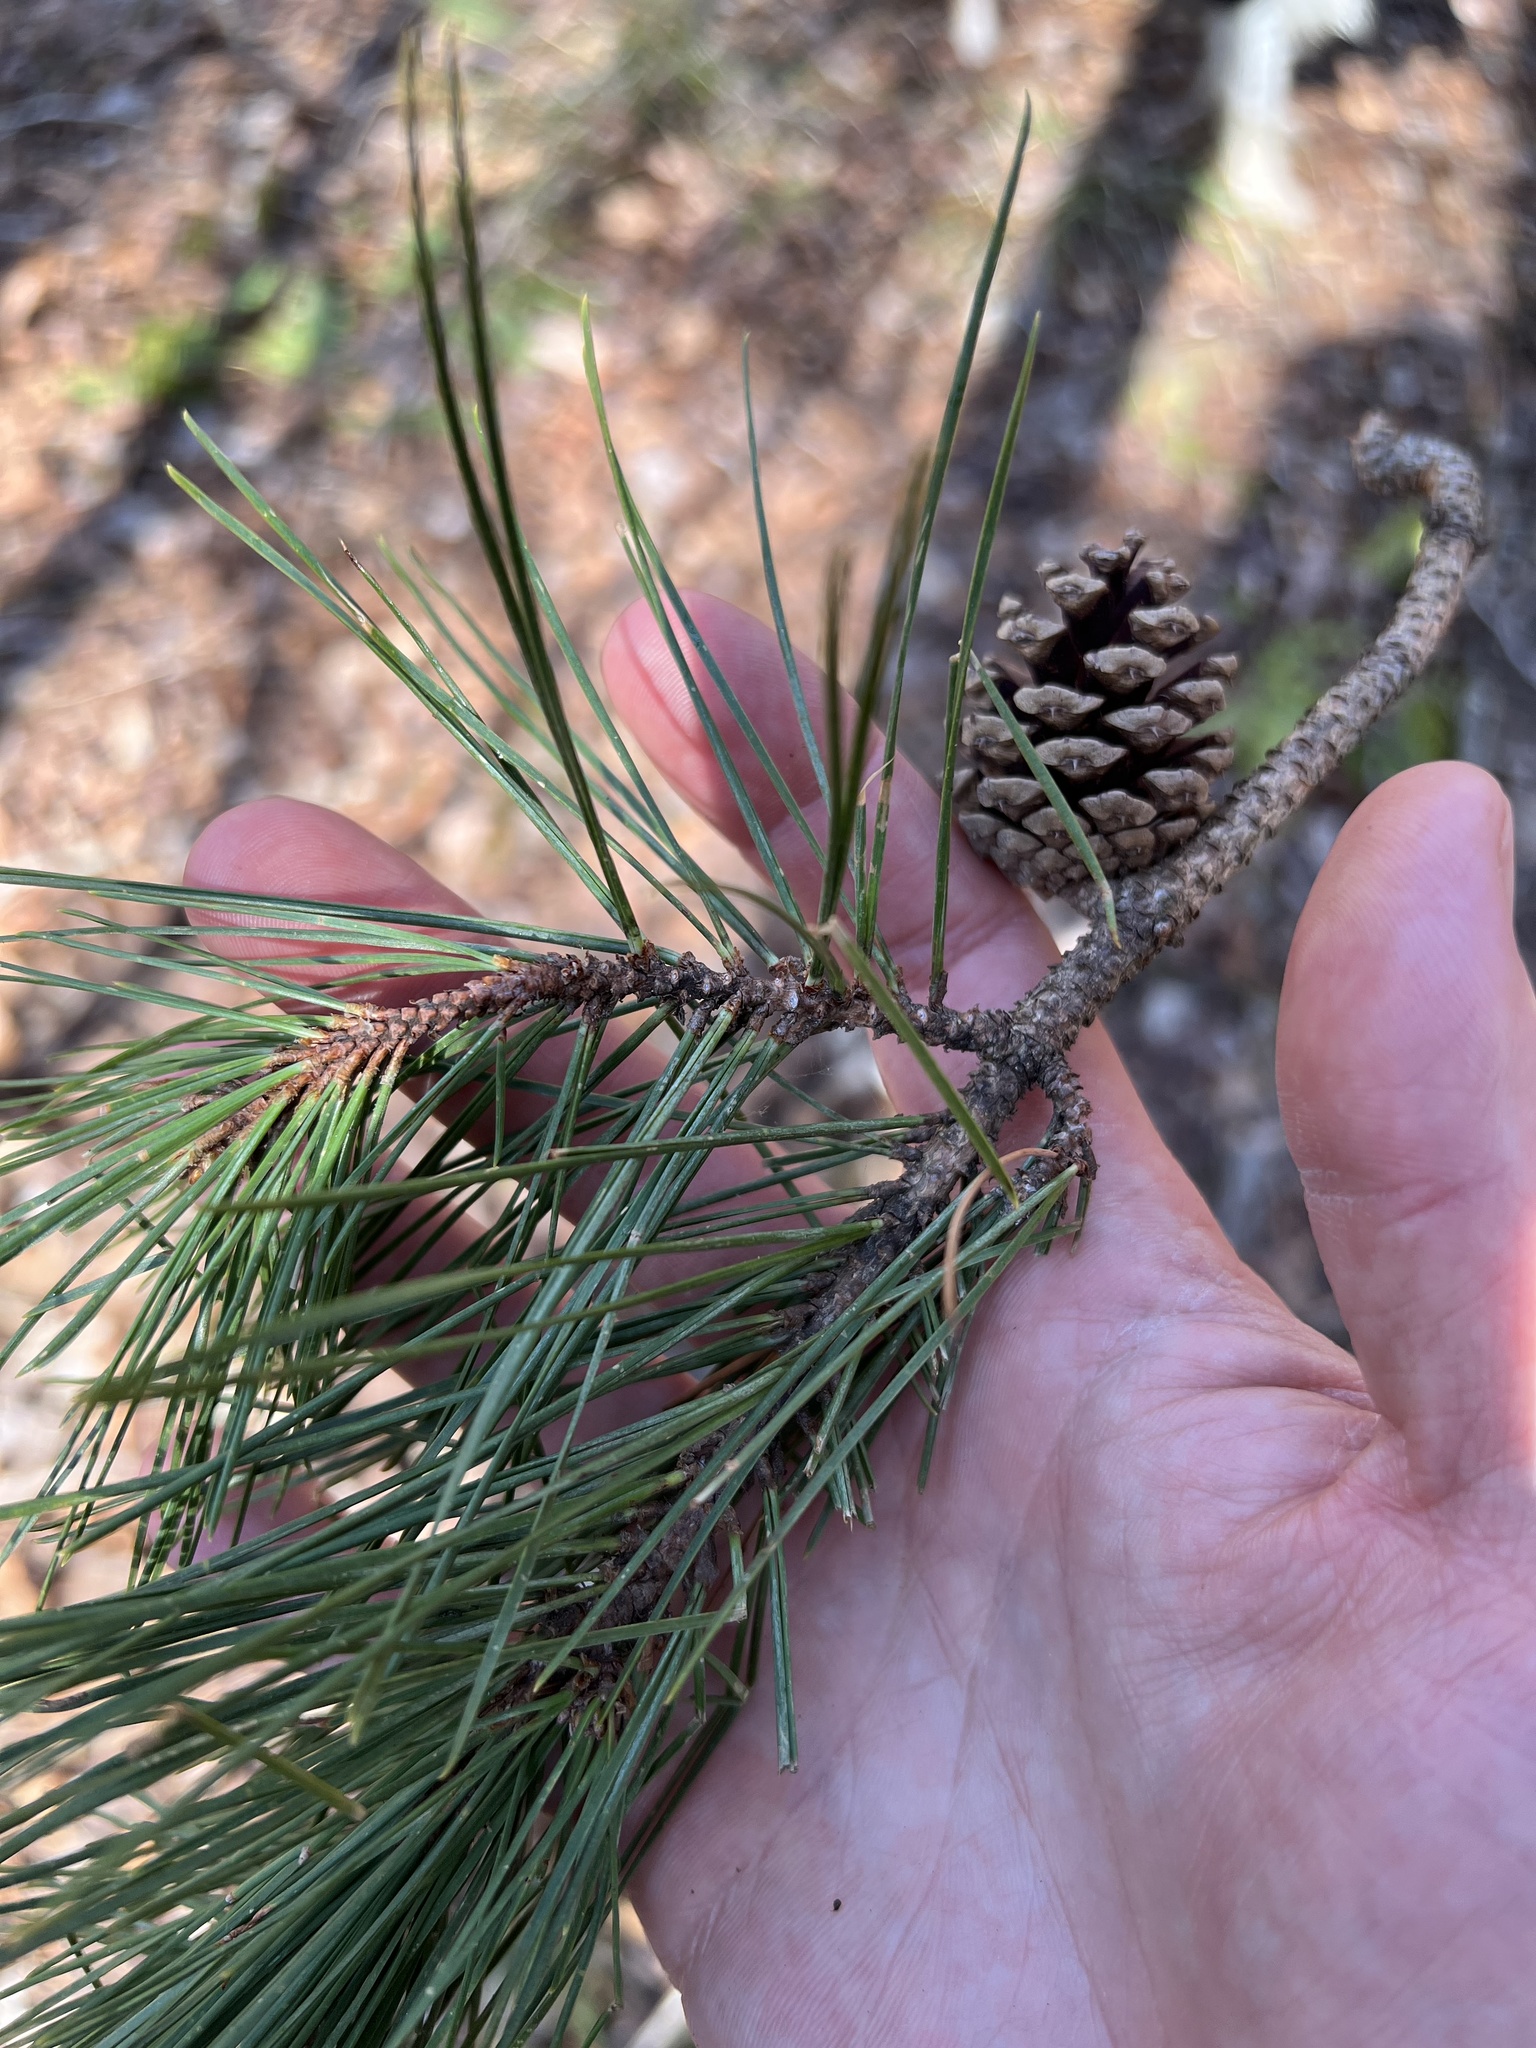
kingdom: Plantae
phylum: Tracheophyta
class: Pinopsida
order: Pinales
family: Pinaceae
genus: Pinus
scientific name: Pinus echinata
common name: Shortleaf pine
